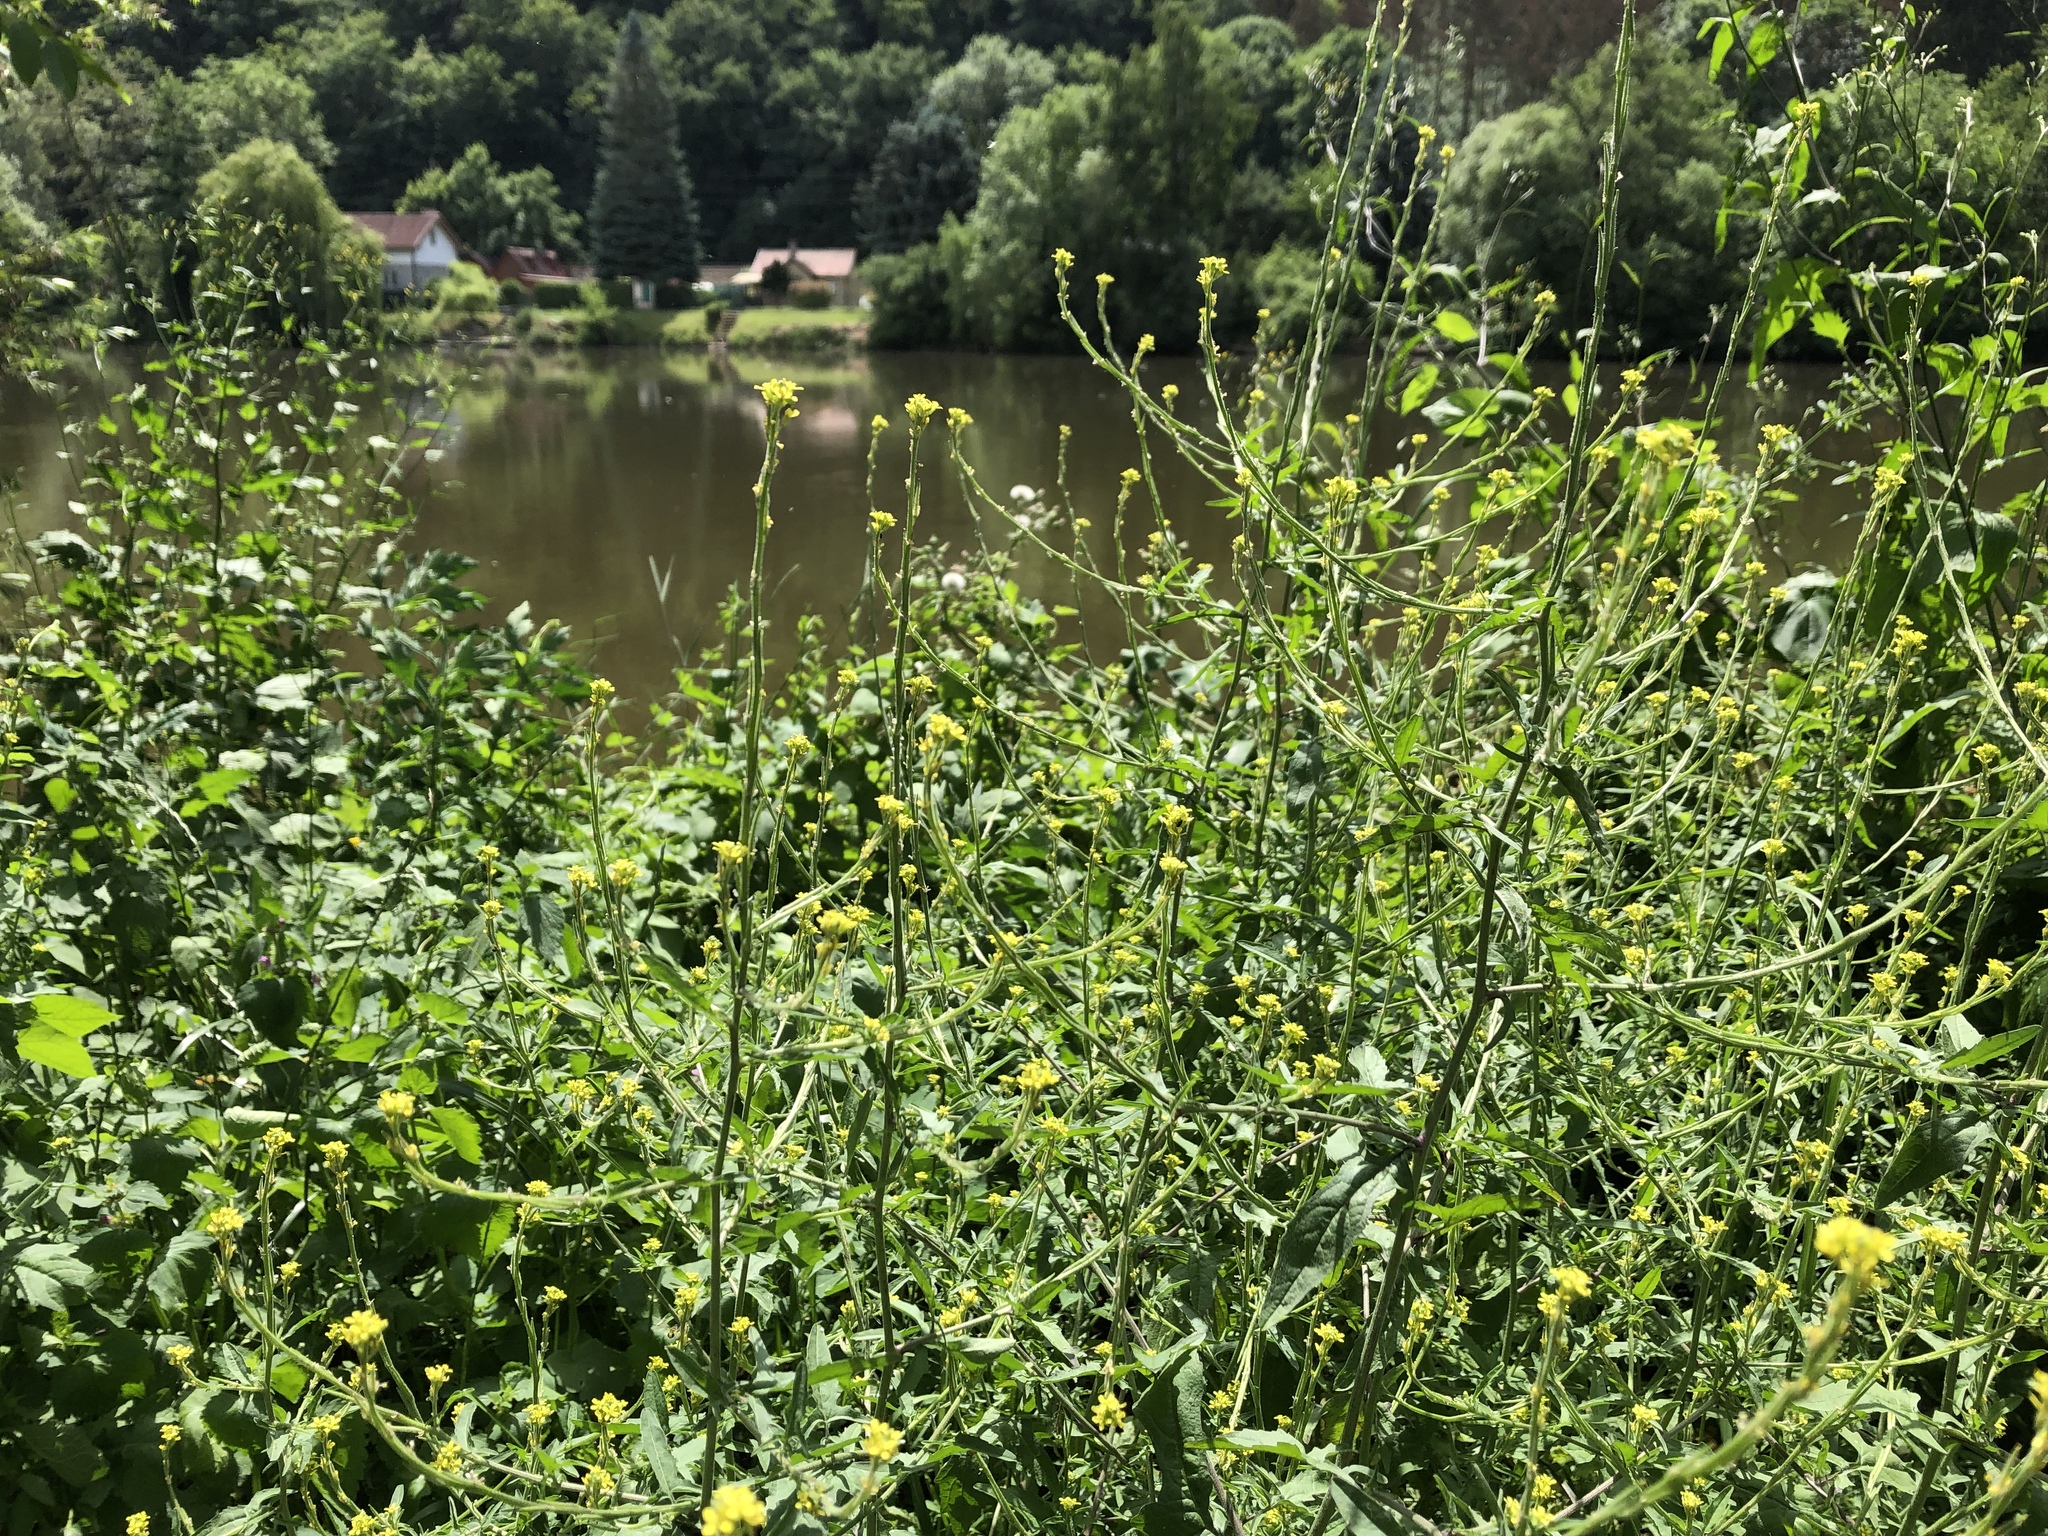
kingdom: Plantae
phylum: Tracheophyta
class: Magnoliopsida
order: Brassicales
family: Brassicaceae
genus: Sisymbrium
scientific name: Sisymbrium officinale
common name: Hedge mustard
